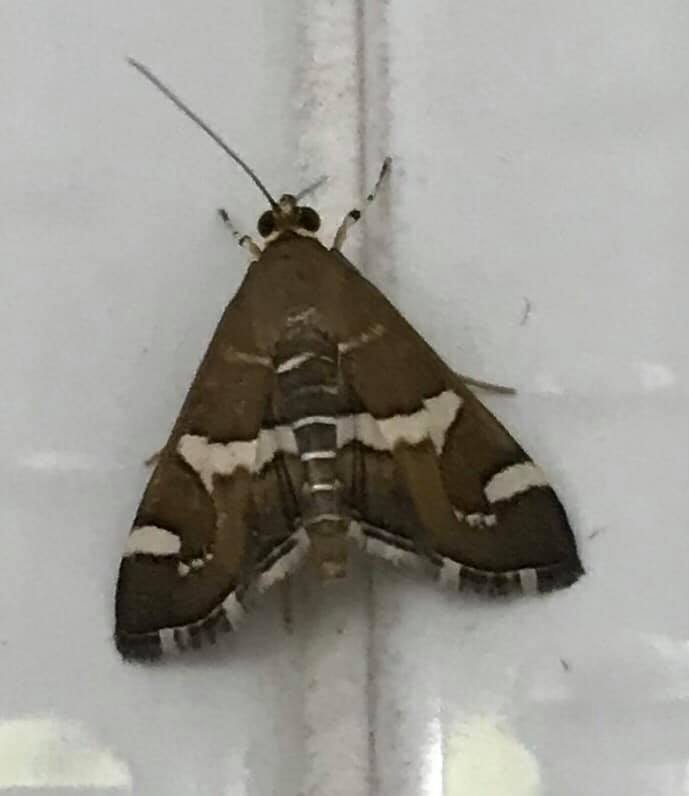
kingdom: Animalia
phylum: Arthropoda
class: Insecta
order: Lepidoptera
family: Crambidae
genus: Spoladea
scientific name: Spoladea recurvalis
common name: Beet webworm moth
